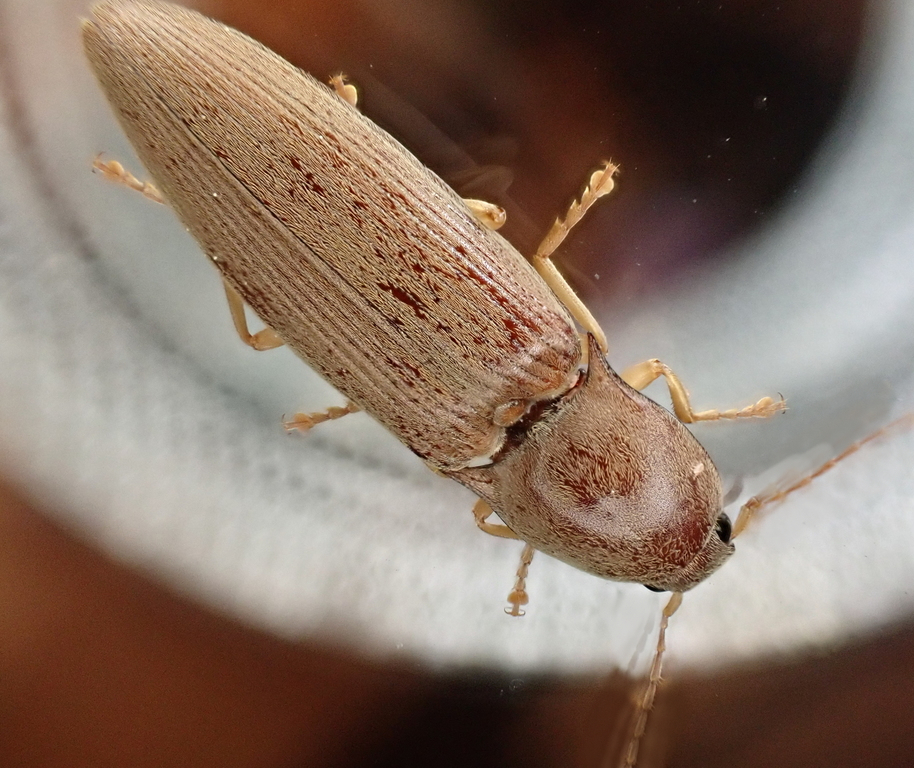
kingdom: Animalia
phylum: Arthropoda
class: Insecta
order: Coleoptera
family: Elateridae
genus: Monocrepidius
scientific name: Monocrepidius lividus
